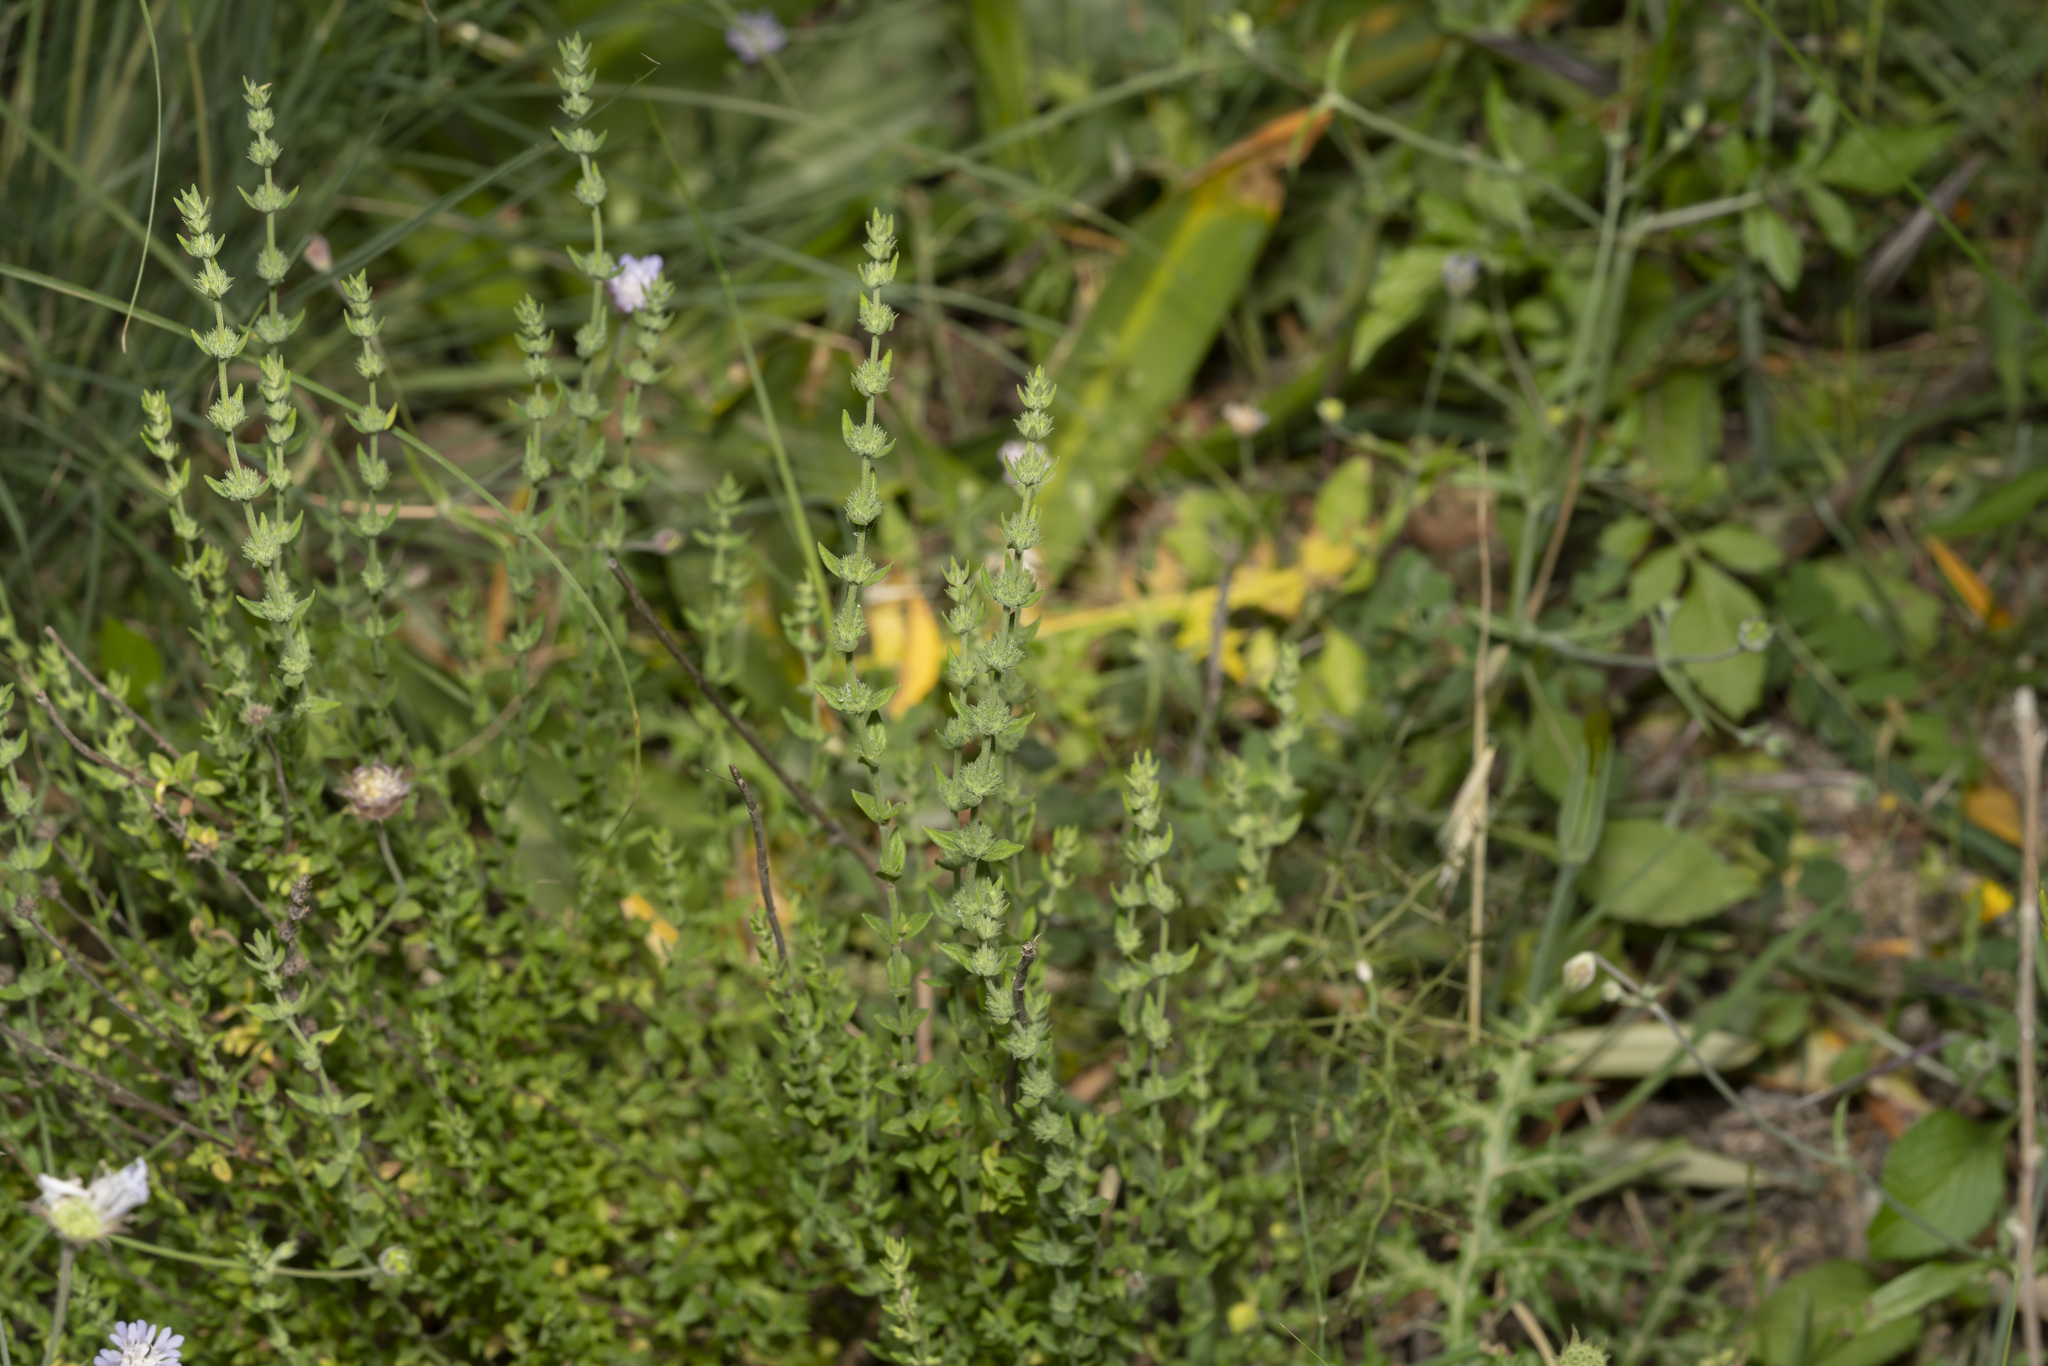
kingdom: Plantae
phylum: Tracheophyta
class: Magnoliopsida
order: Lamiales
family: Lamiaceae
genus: Micromeria
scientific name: Micromeria myrtifolia
